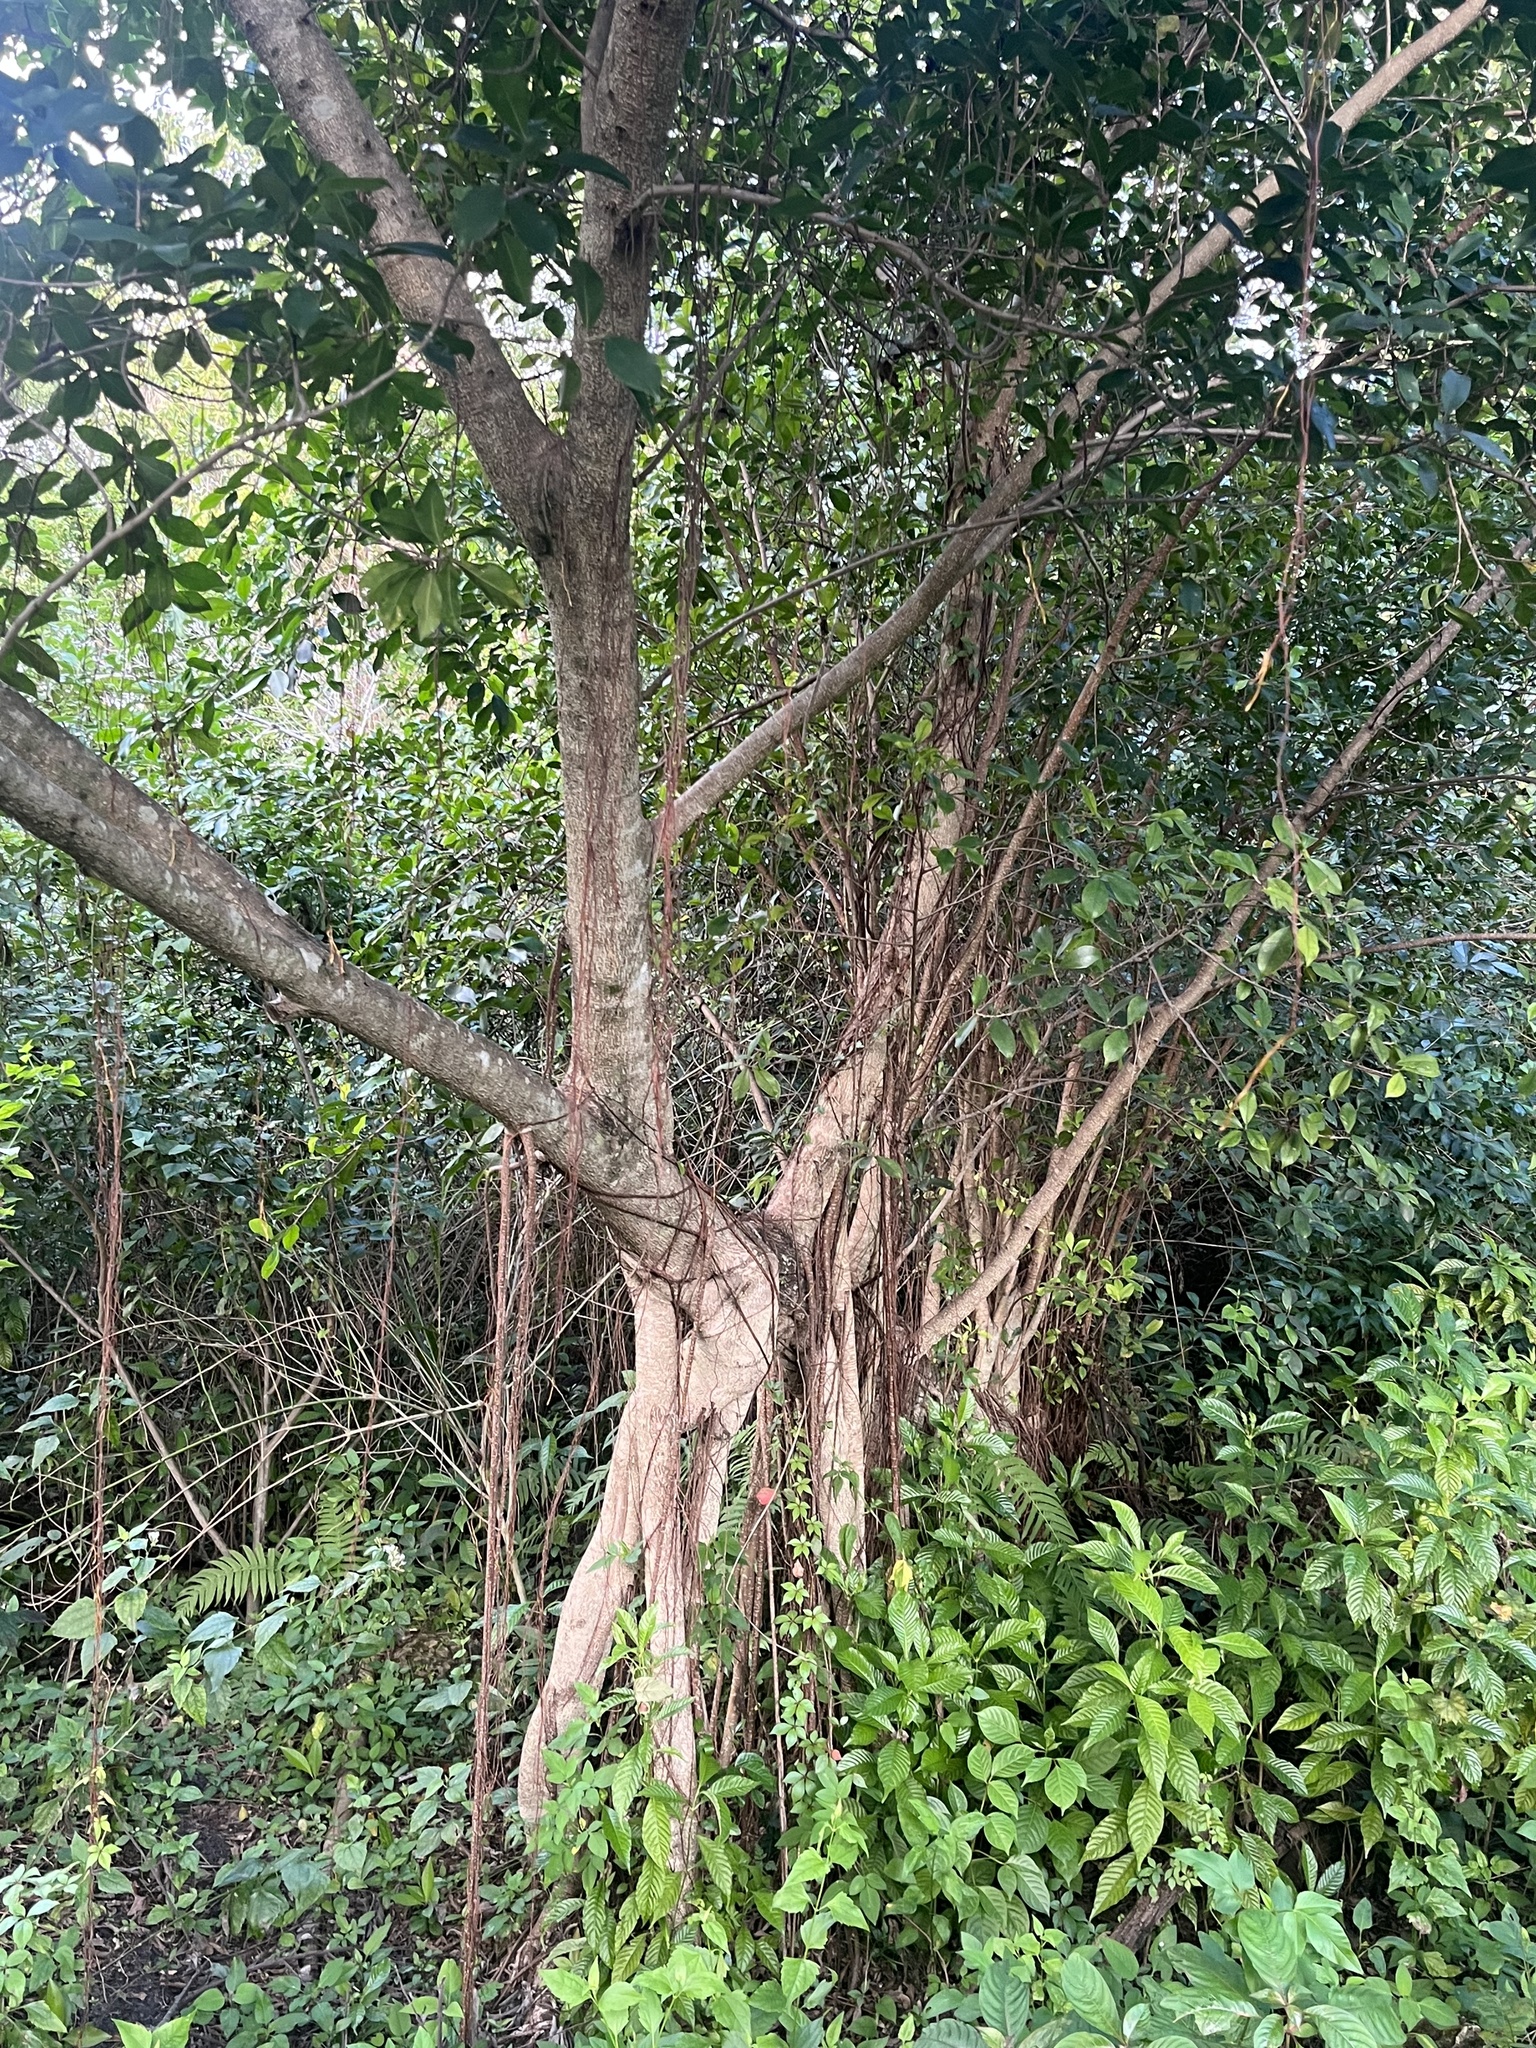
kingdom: Plantae
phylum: Tracheophyta
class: Magnoliopsida
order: Rosales
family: Moraceae
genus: Ficus
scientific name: Ficus microcarpa
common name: Chinese banyan
